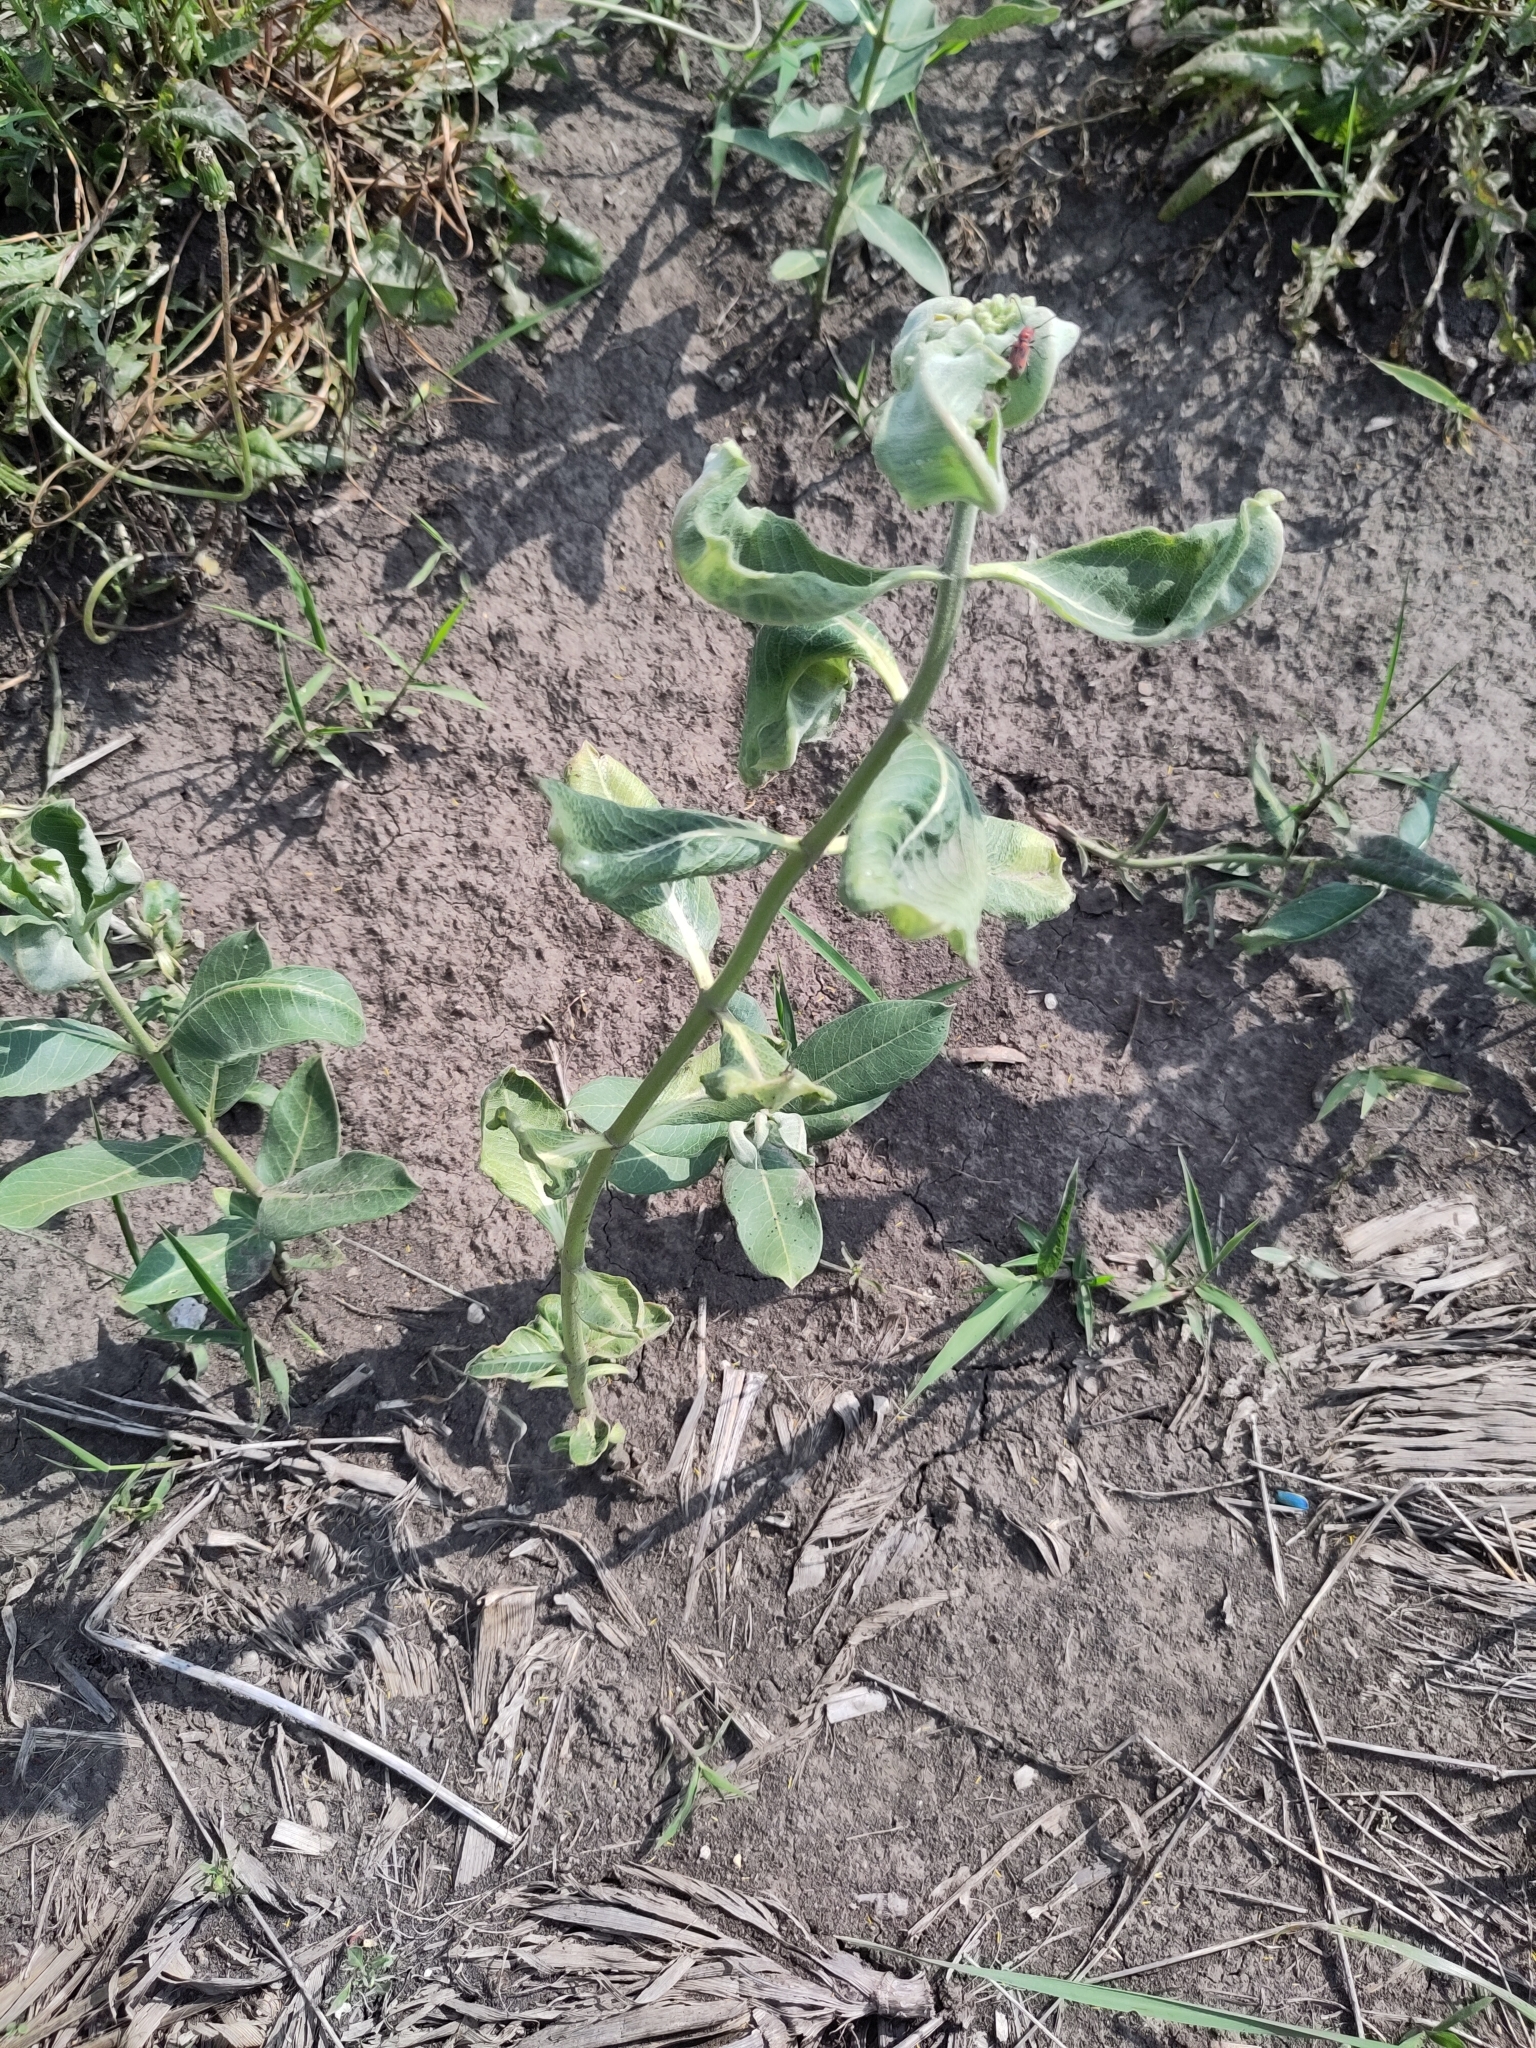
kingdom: Plantae
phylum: Tracheophyta
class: Magnoliopsida
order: Gentianales
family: Apocynaceae
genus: Asclepias
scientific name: Asclepias syriaca
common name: Common milkweed
